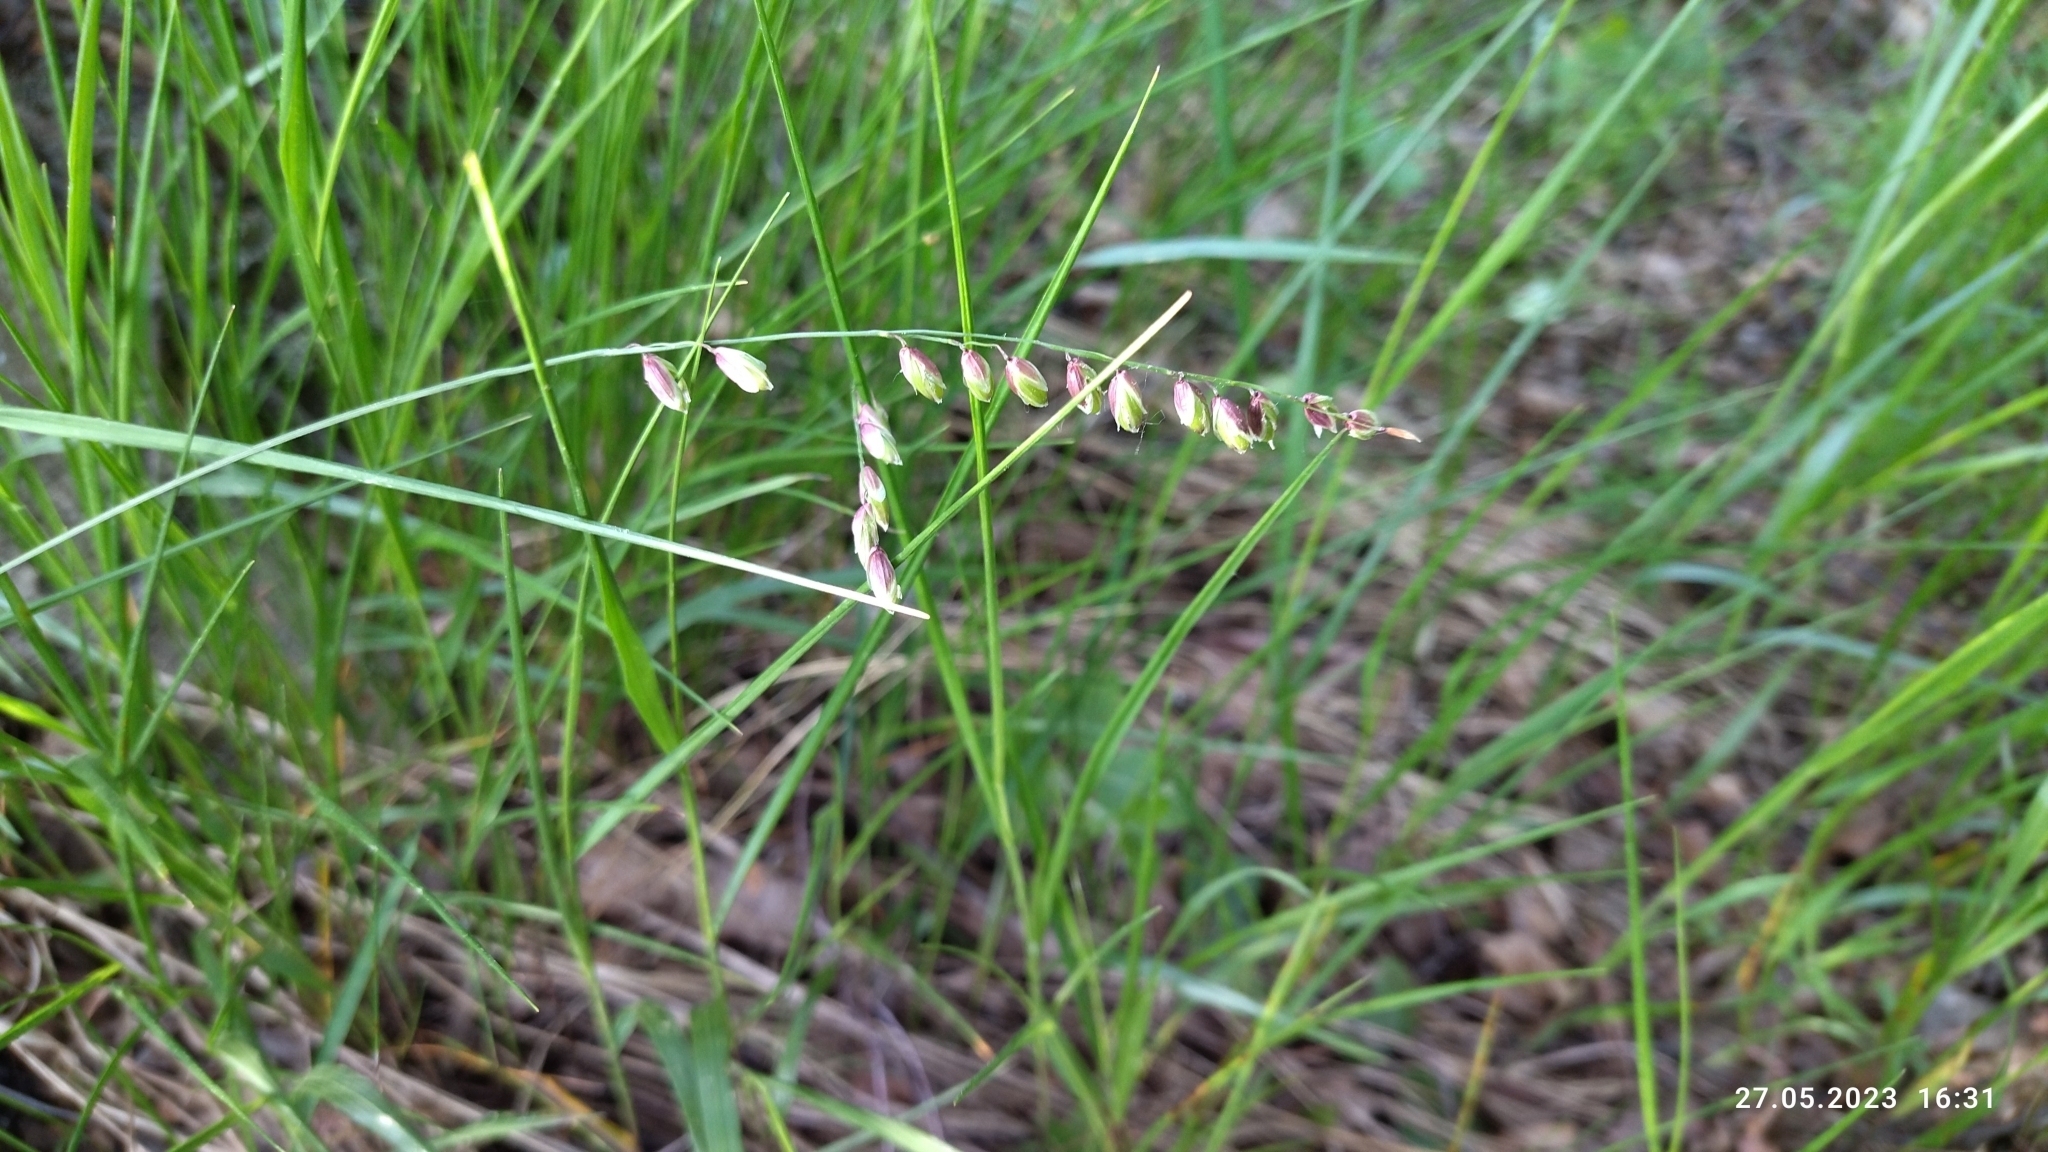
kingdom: Plantae
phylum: Tracheophyta
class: Liliopsida
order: Poales
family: Poaceae
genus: Melica
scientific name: Melica nutans
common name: Mountain melick
